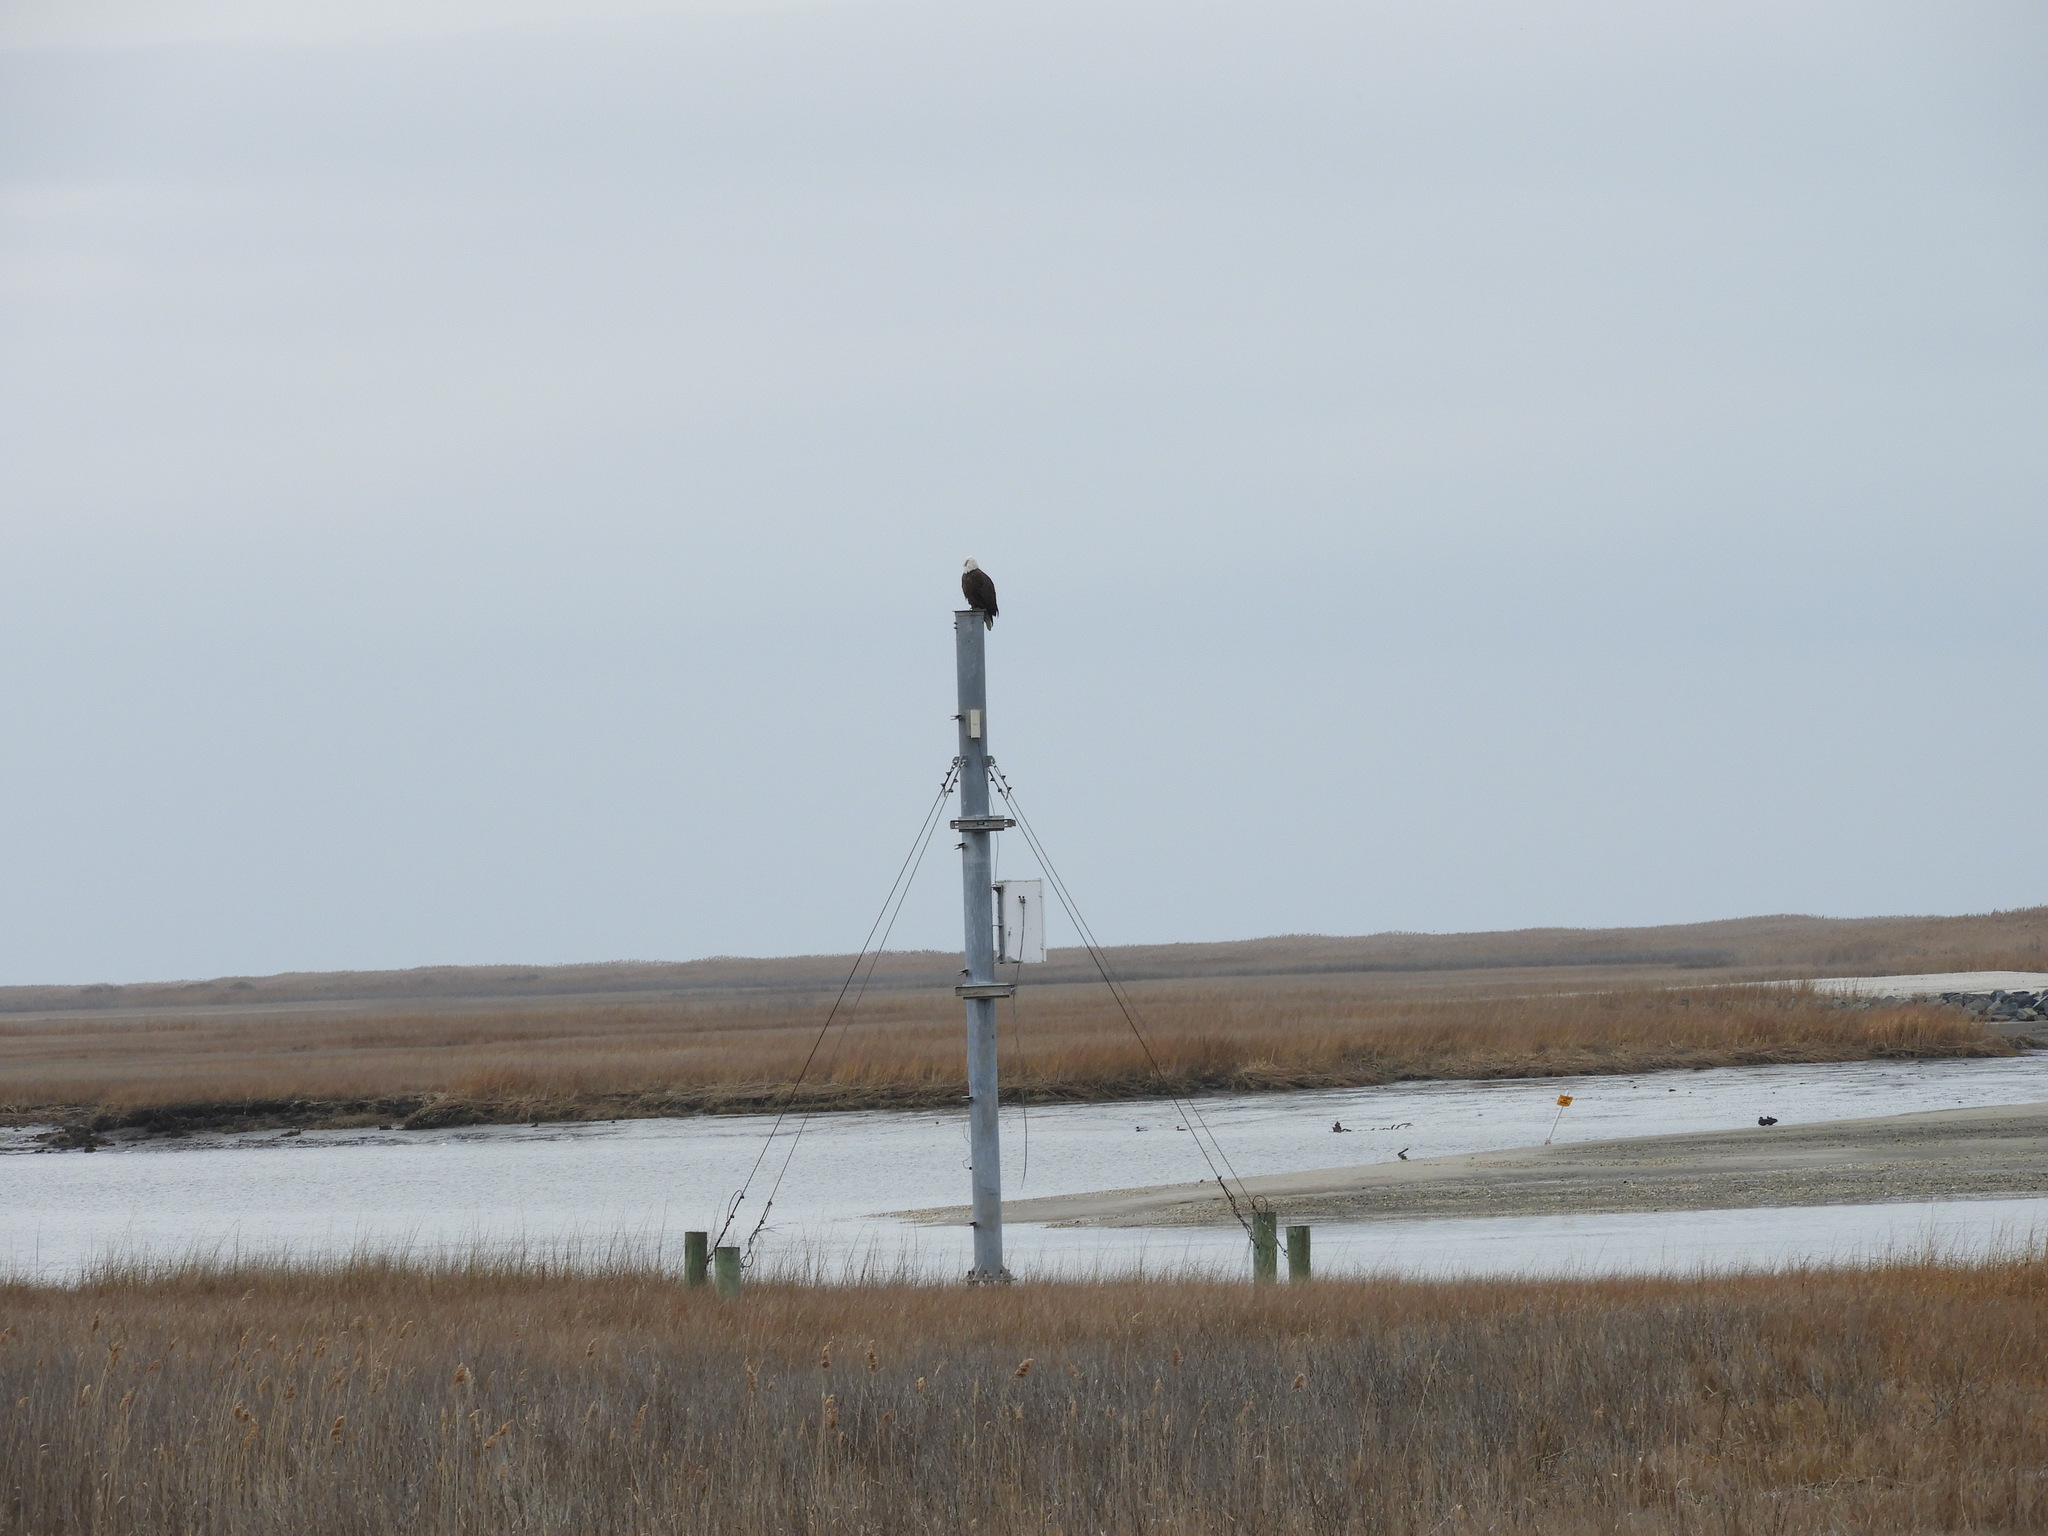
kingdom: Animalia
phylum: Chordata
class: Aves
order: Accipitriformes
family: Accipitridae
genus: Haliaeetus
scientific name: Haliaeetus leucocephalus
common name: Bald eagle
